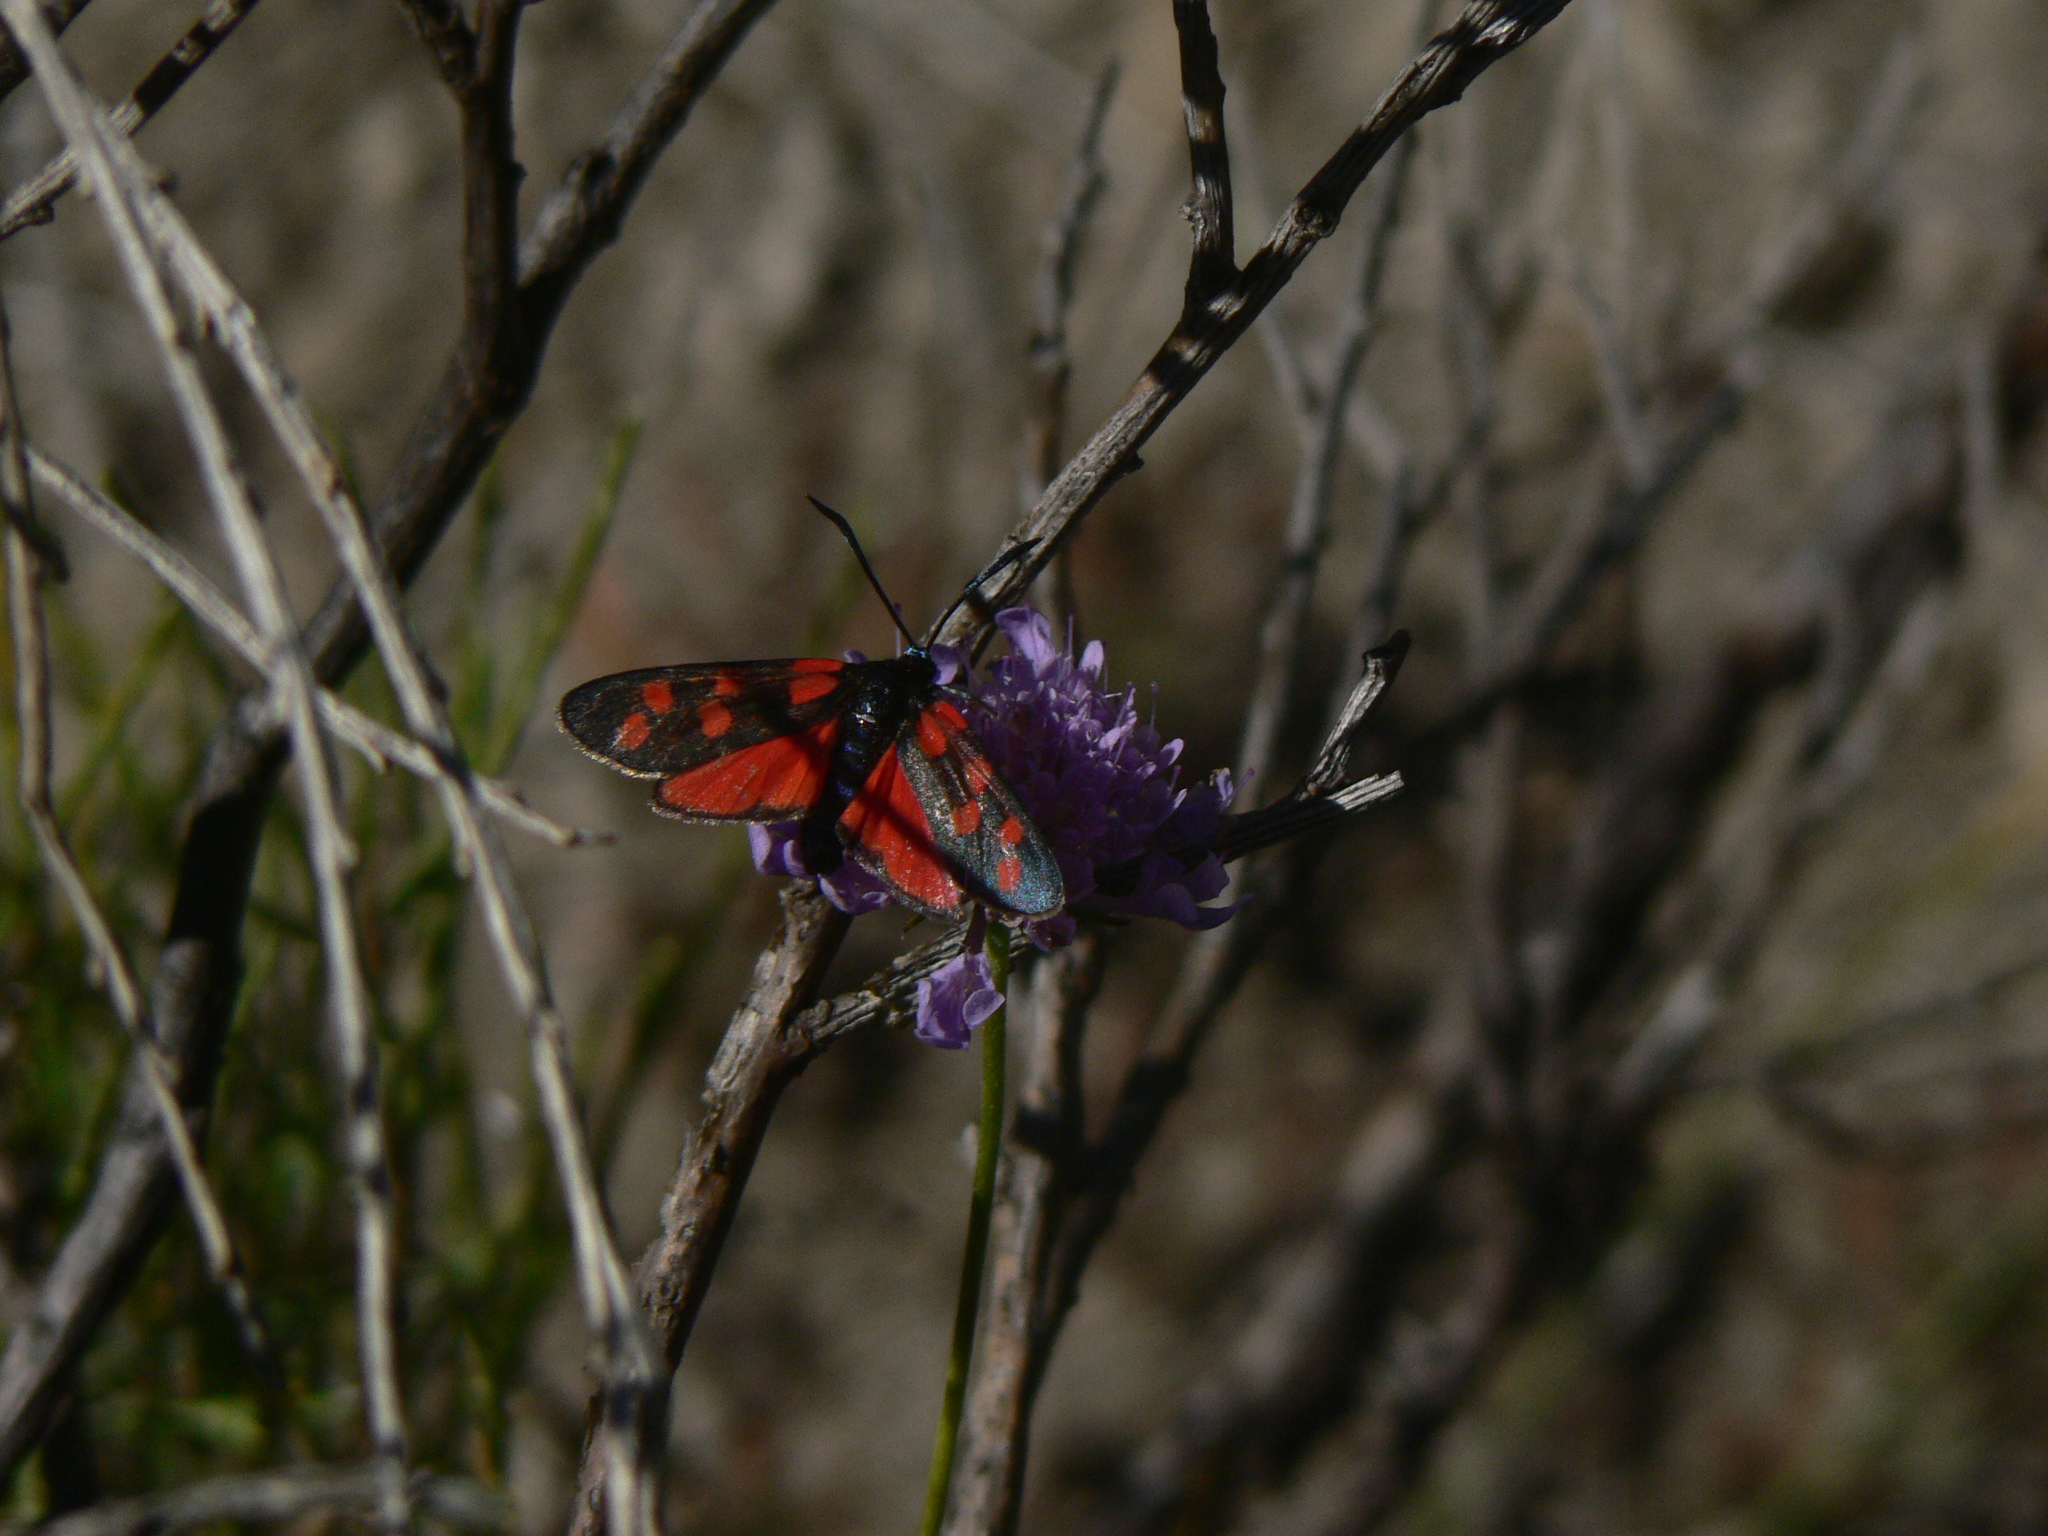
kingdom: Animalia
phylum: Arthropoda
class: Insecta
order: Lepidoptera
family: Zygaenidae
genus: Zygaena
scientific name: Zygaena transalpina
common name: Southern six spot burnet
